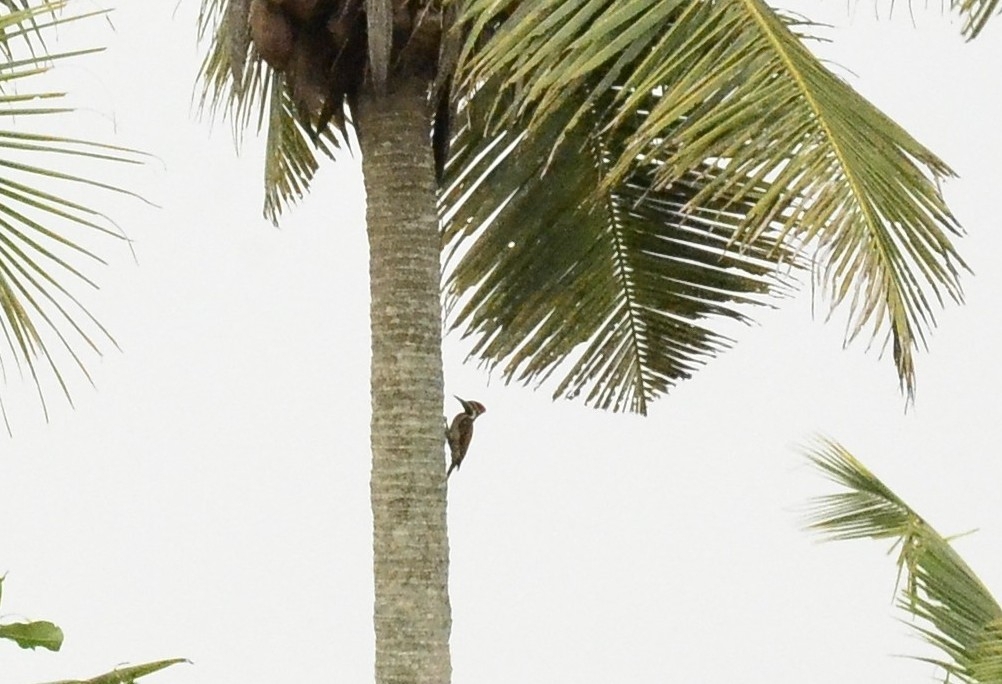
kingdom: Animalia
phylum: Chordata
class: Aves
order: Piciformes
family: Picidae
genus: Dinopium
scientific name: Dinopium benghalense
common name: Black-rumped flameback
